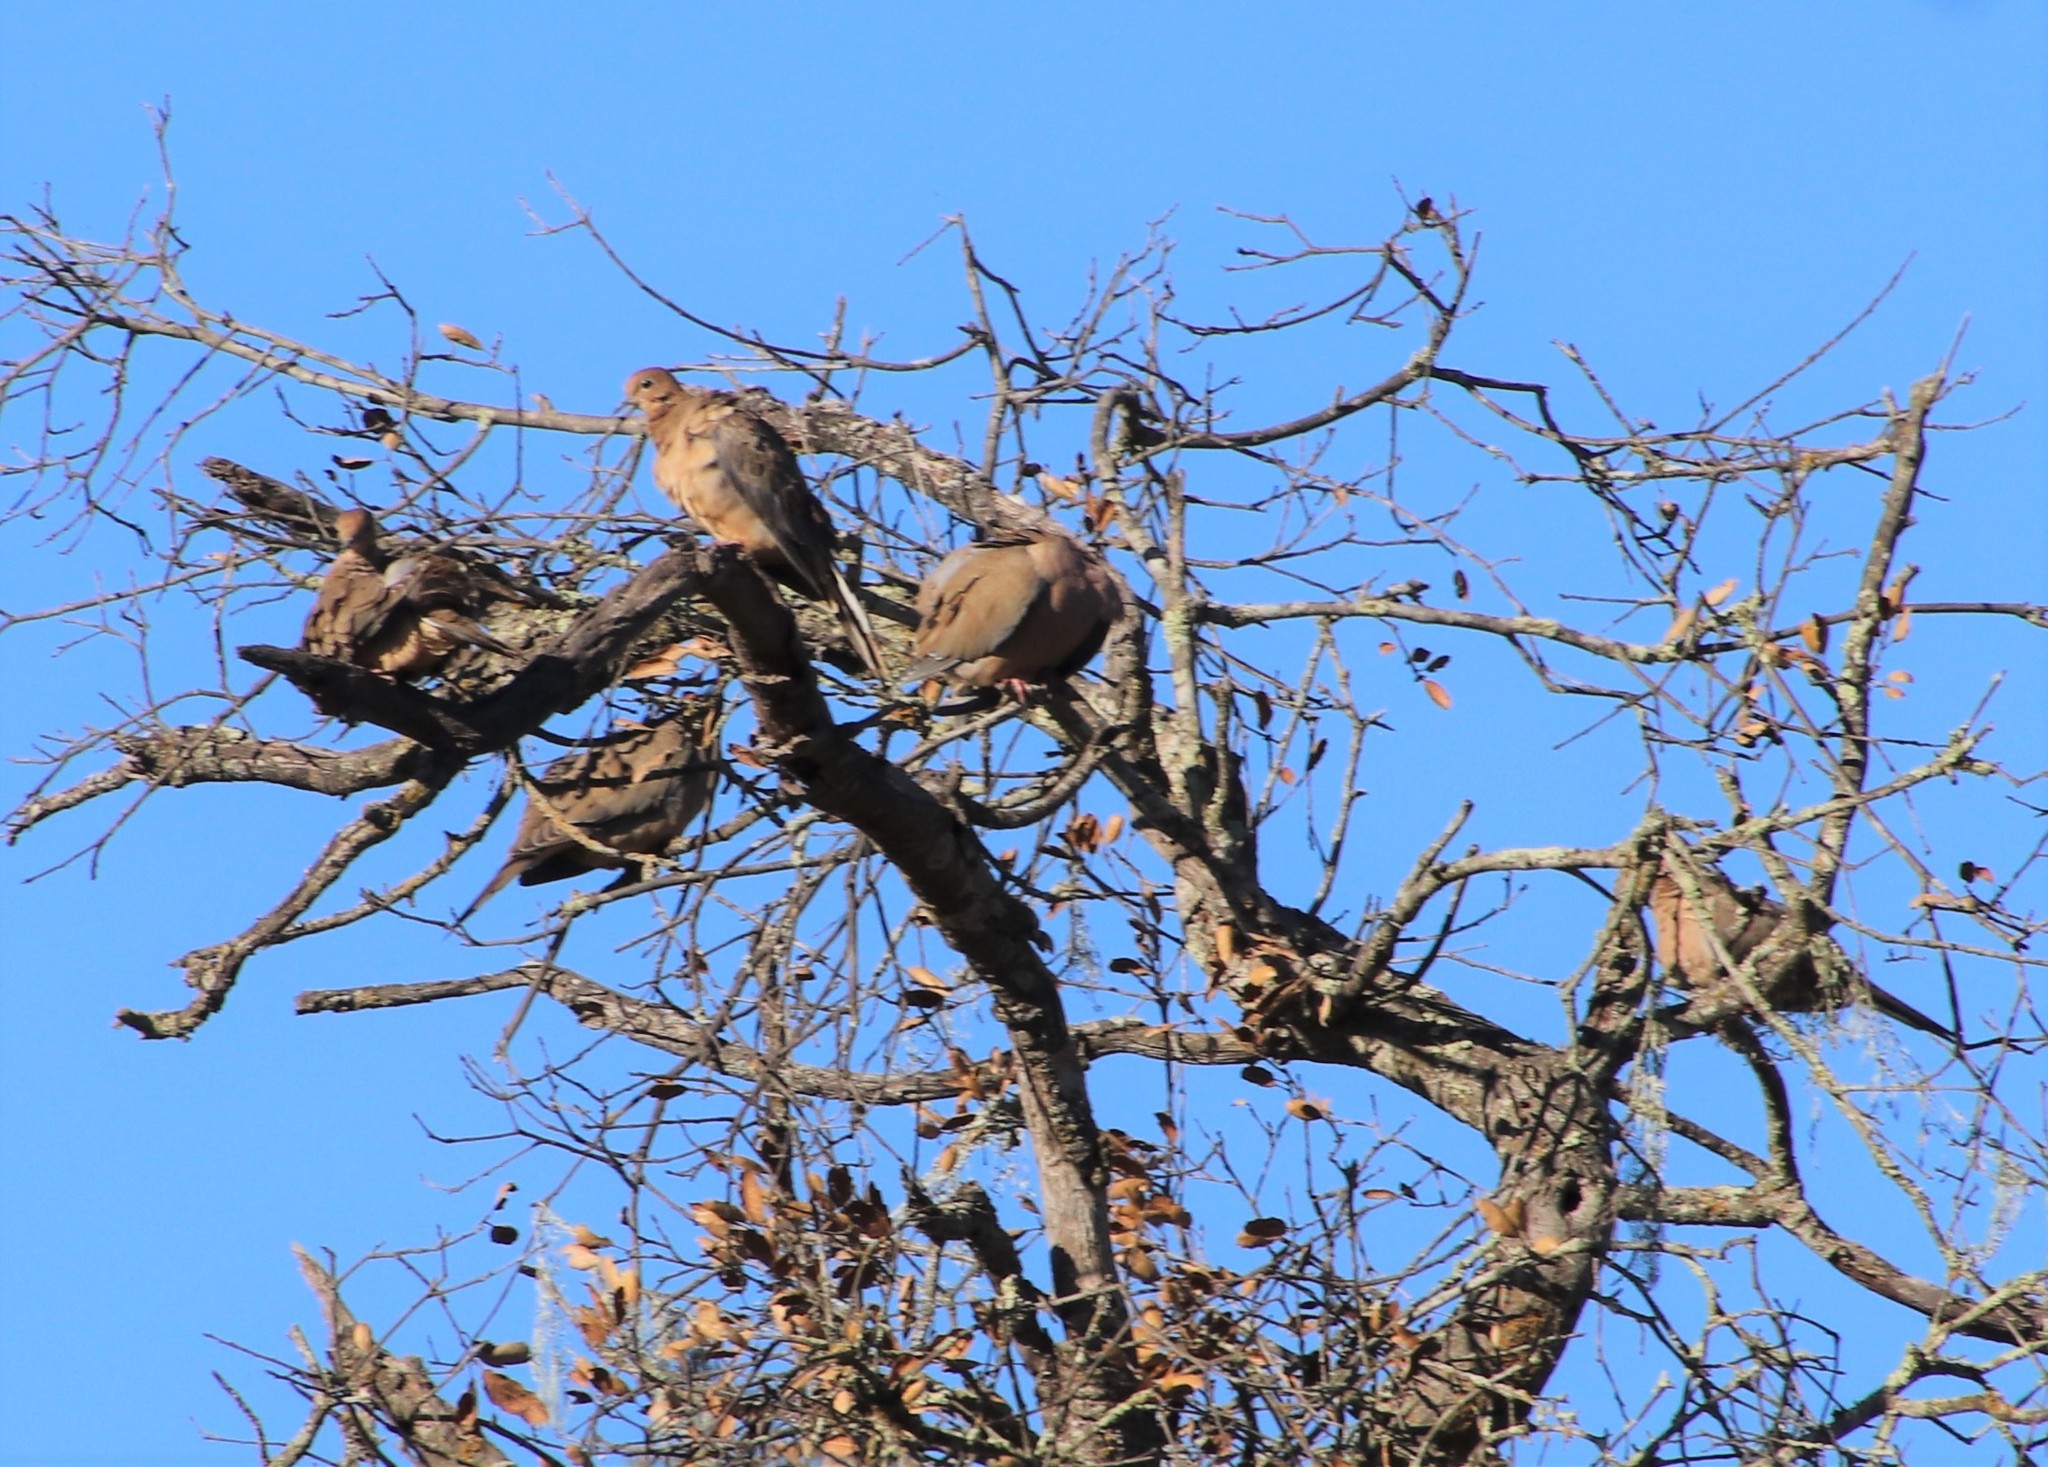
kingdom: Animalia
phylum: Chordata
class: Aves
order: Columbiformes
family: Columbidae
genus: Zenaida
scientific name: Zenaida macroura
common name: Mourning dove
